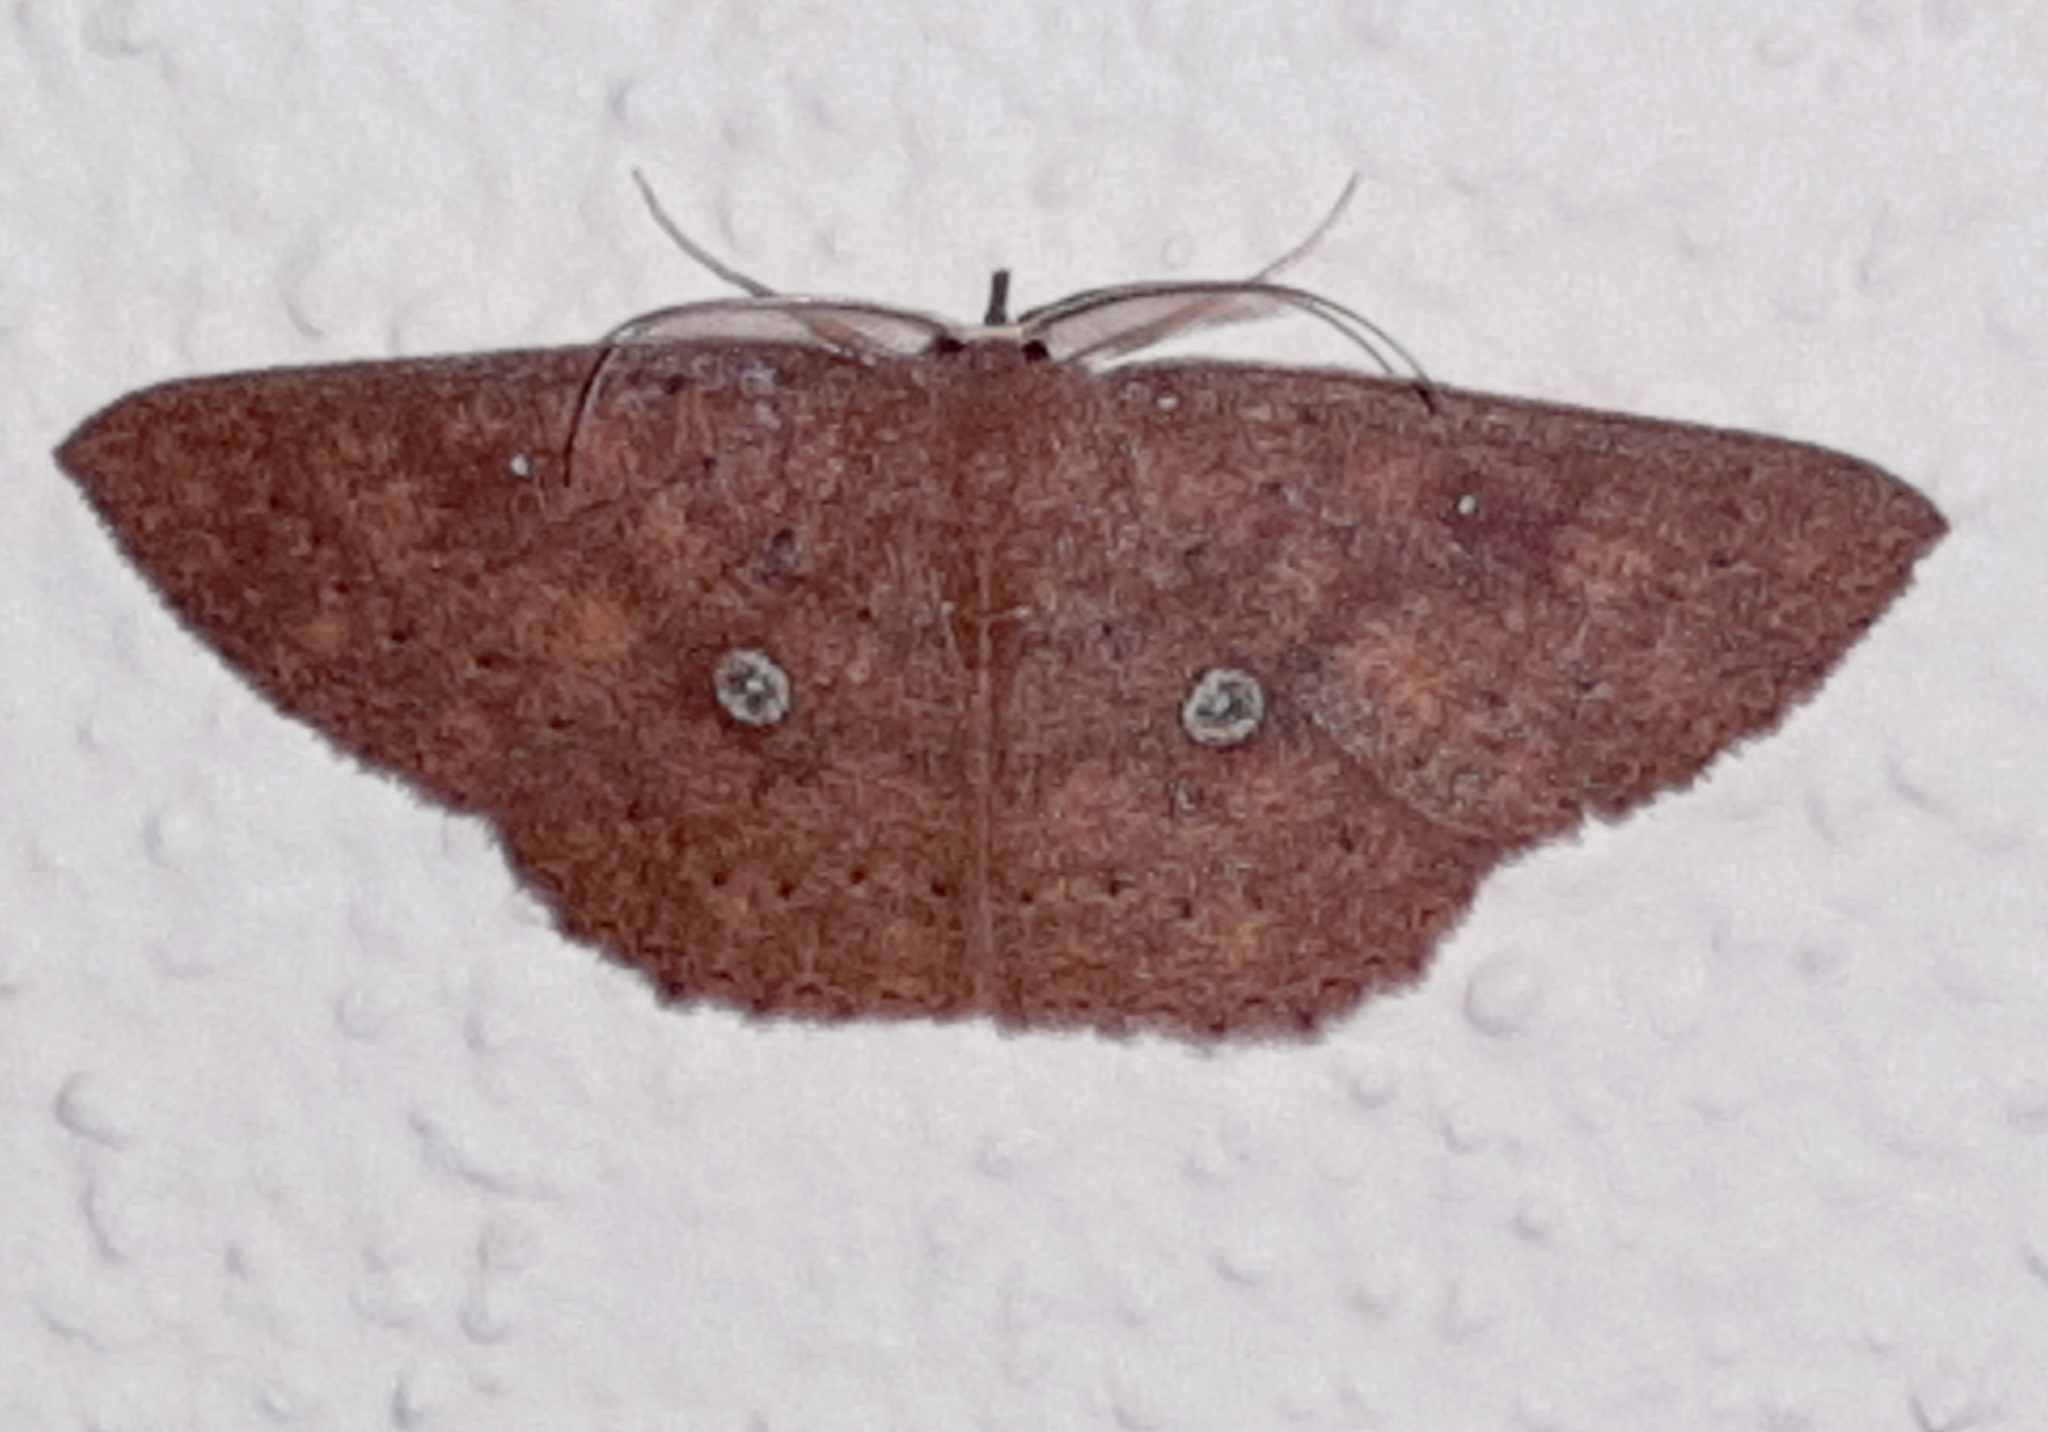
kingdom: Animalia
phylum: Arthropoda
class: Insecta
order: Lepidoptera
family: Geometridae
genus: Cyclophora
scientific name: Cyclophora
